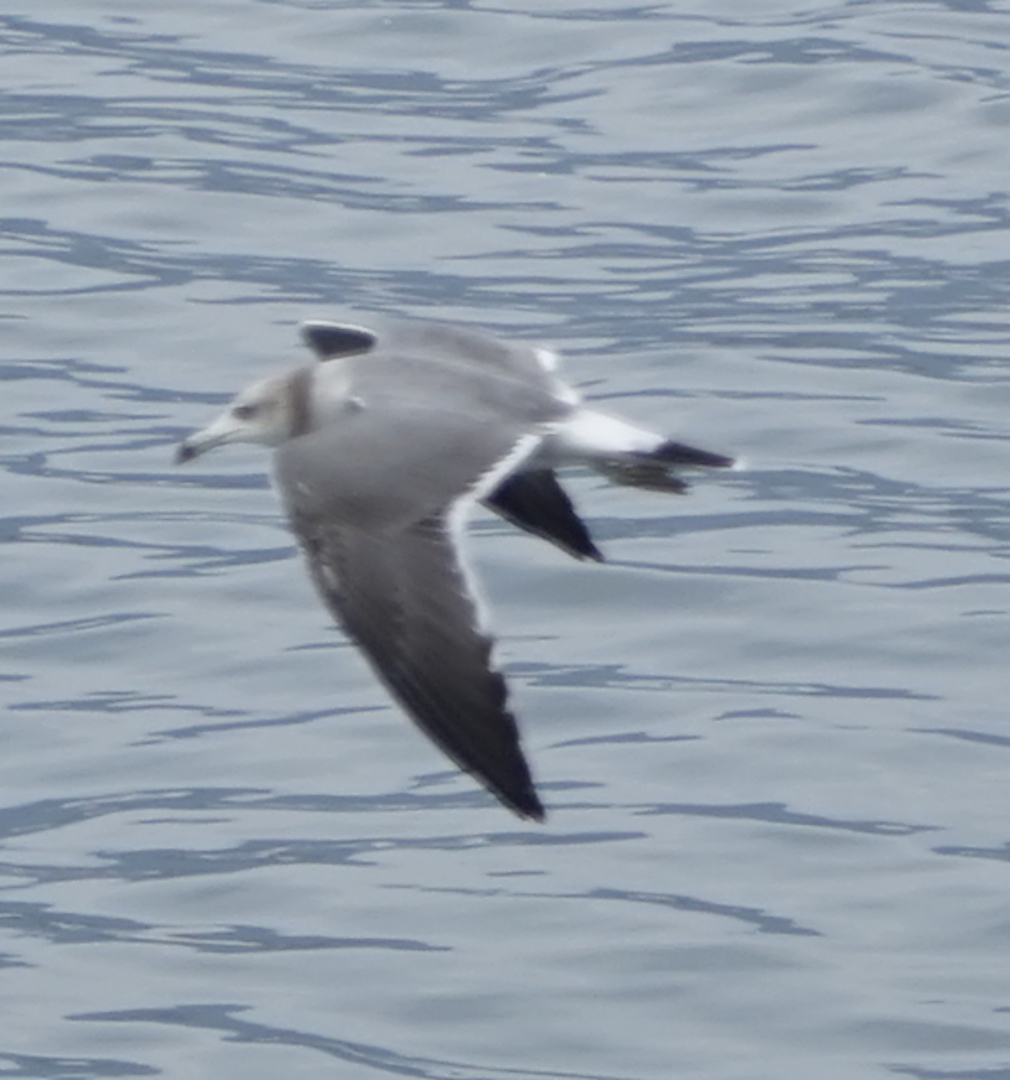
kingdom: Animalia
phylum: Chordata
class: Aves
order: Charadriiformes
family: Laridae
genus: Larus
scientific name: Larus crassirostris
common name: Black-tailed gull
